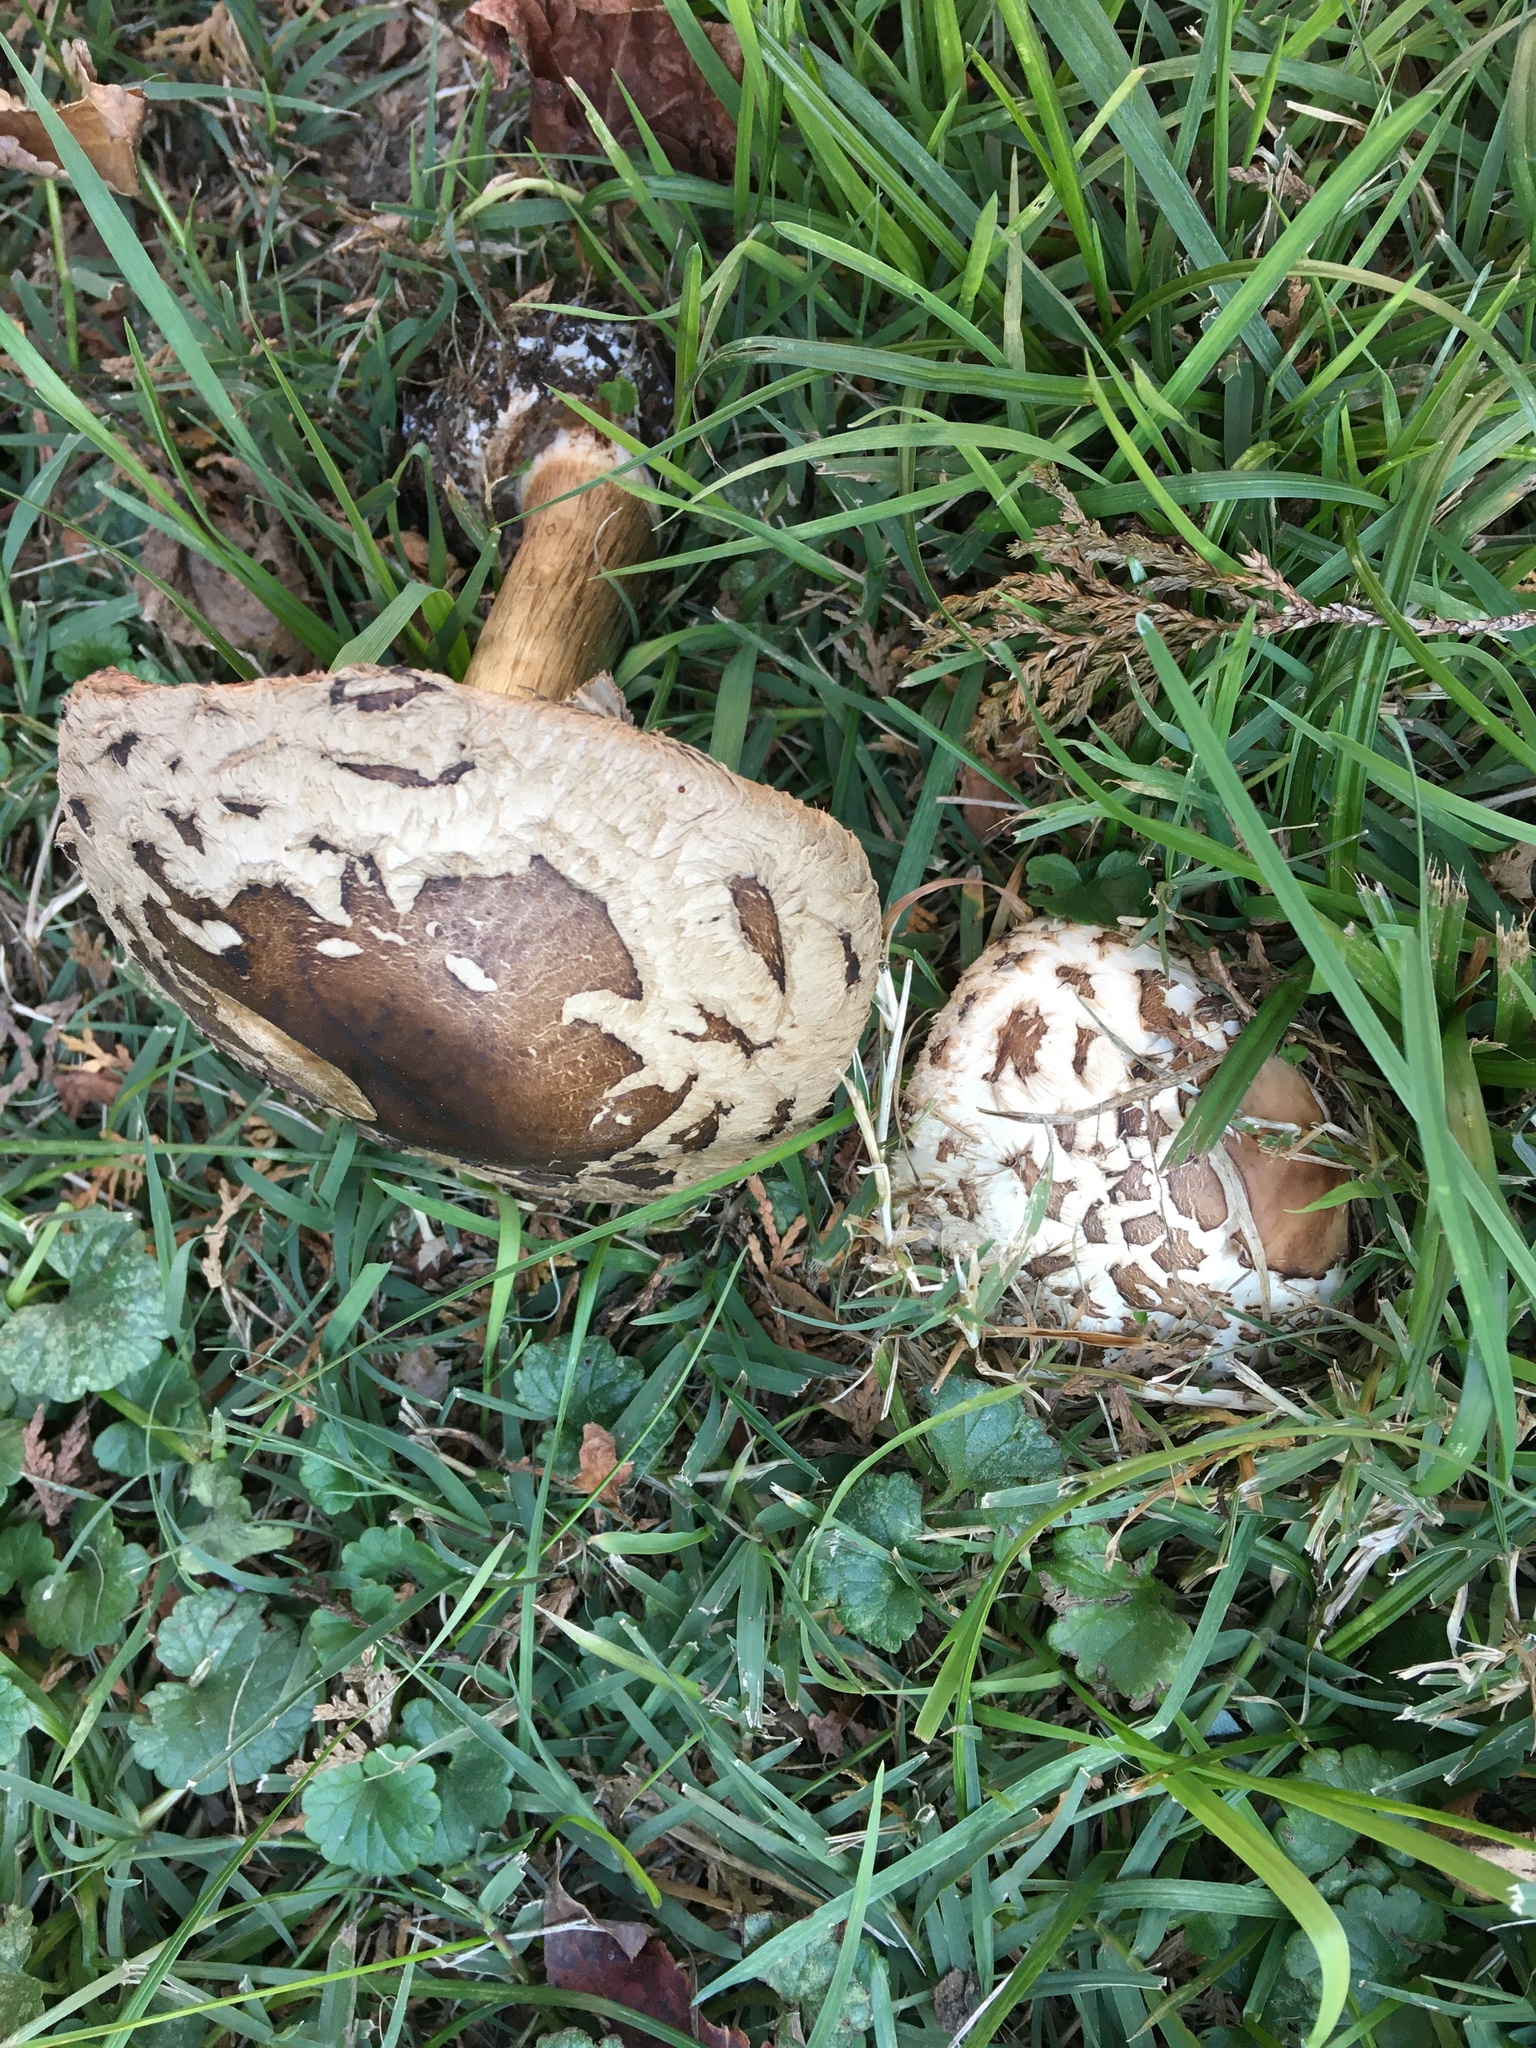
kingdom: Fungi
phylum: Basidiomycota
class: Agaricomycetes
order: Agaricales
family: Agaricaceae
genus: Chlorophyllum
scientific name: Chlorophyllum brunneum
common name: Brown parasol
